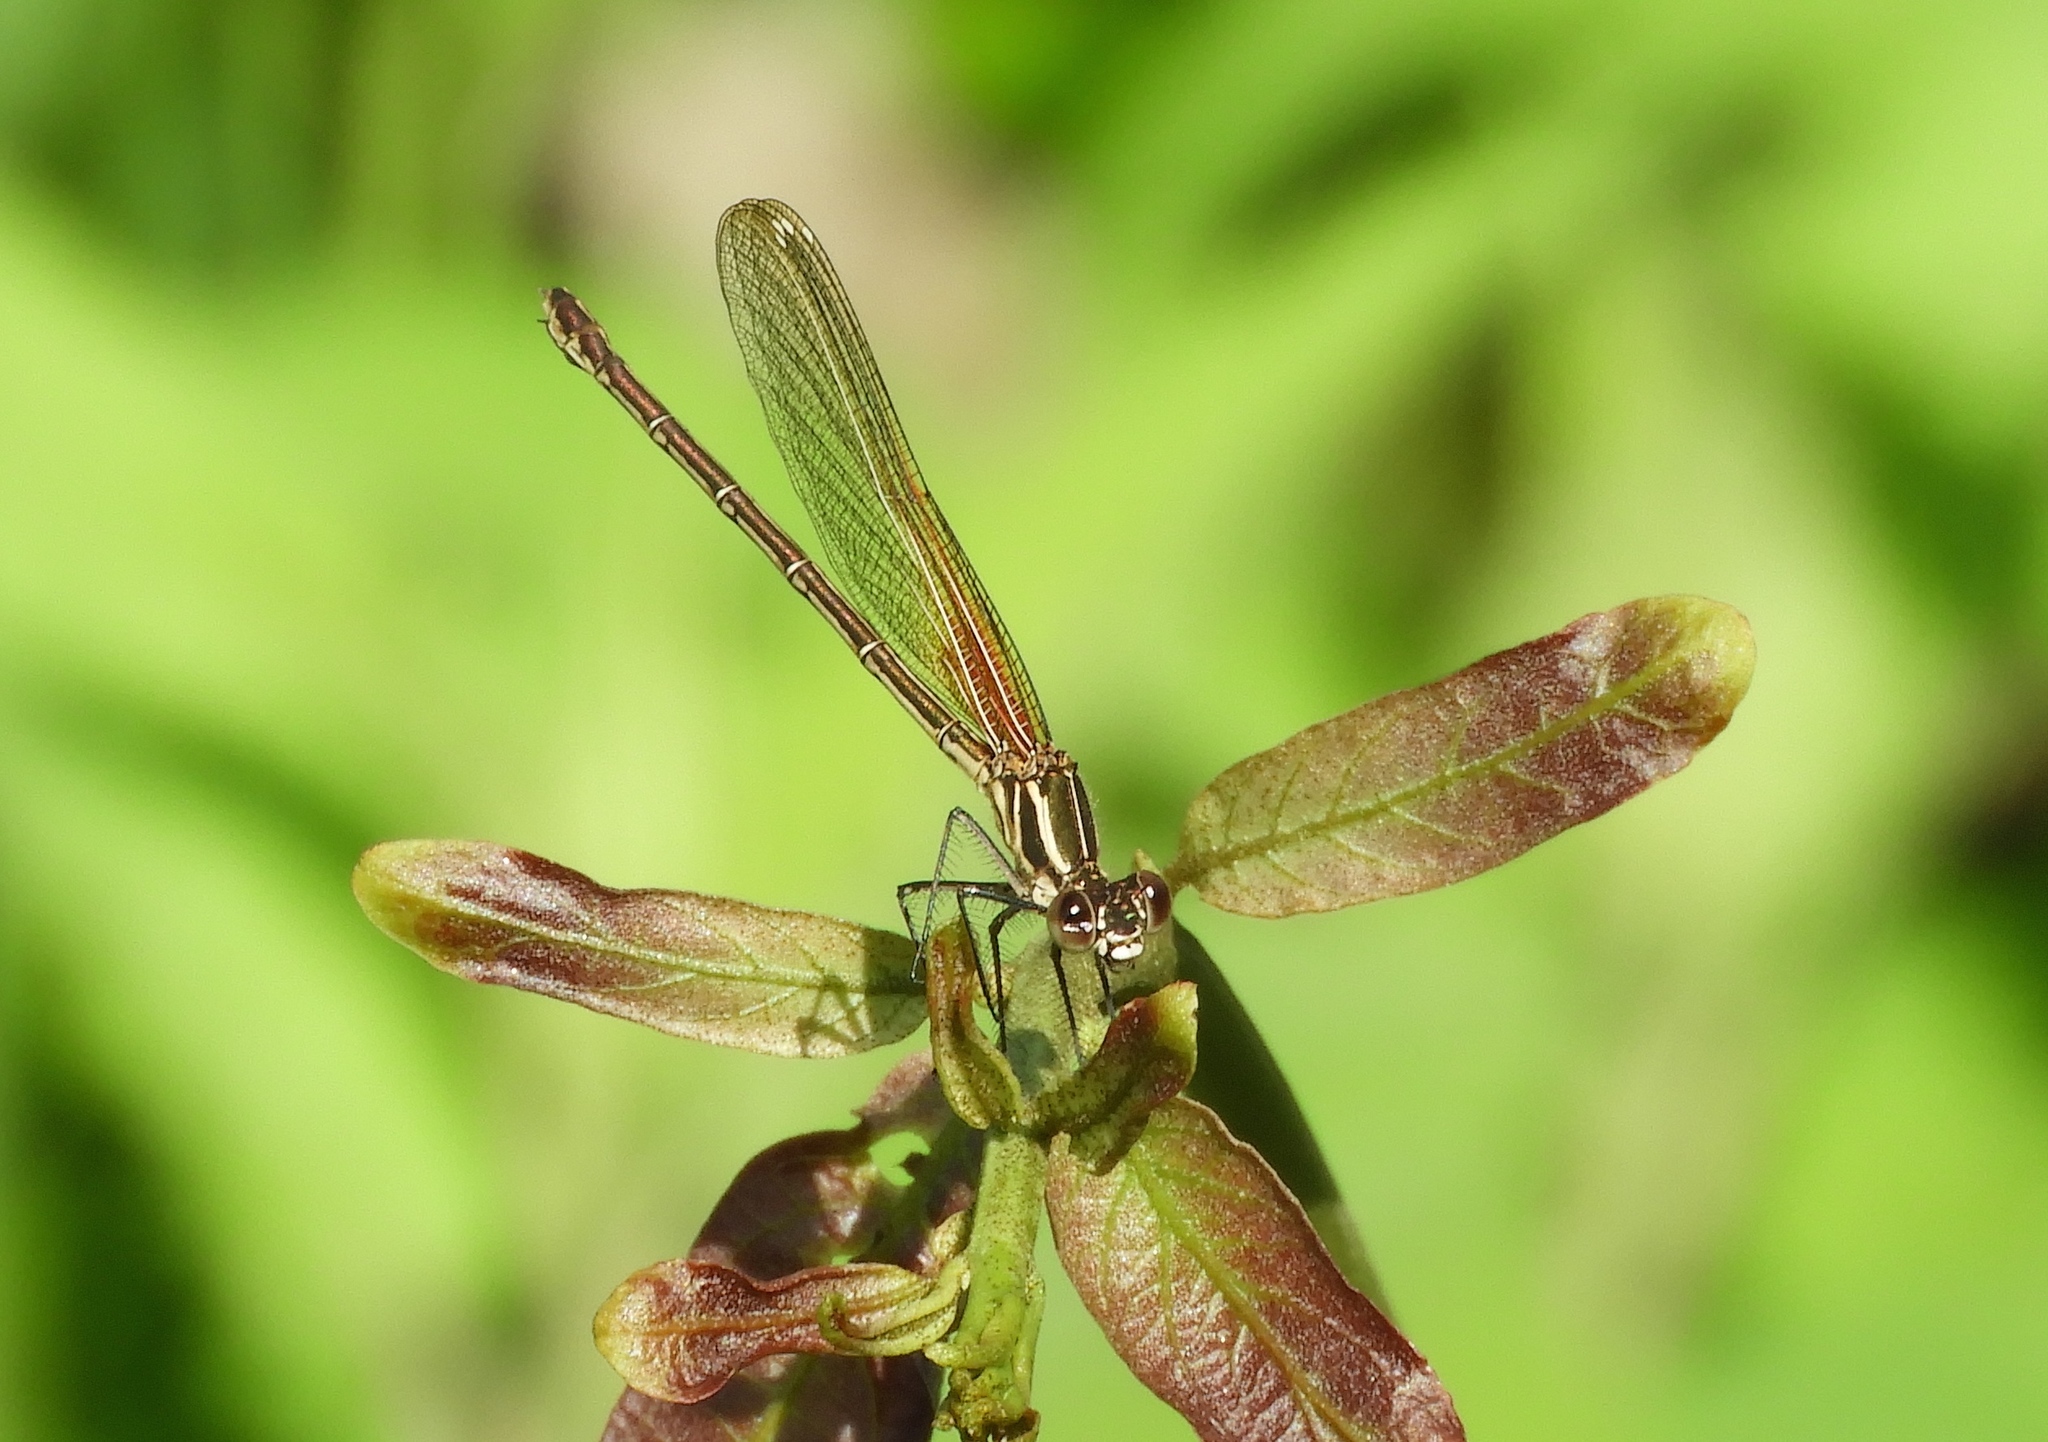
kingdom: Animalia
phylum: Arthropoda
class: Insecta
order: Odonata
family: Calopterygidae
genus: Hetaerina
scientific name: Hetaerina americana
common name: American rubyspot
